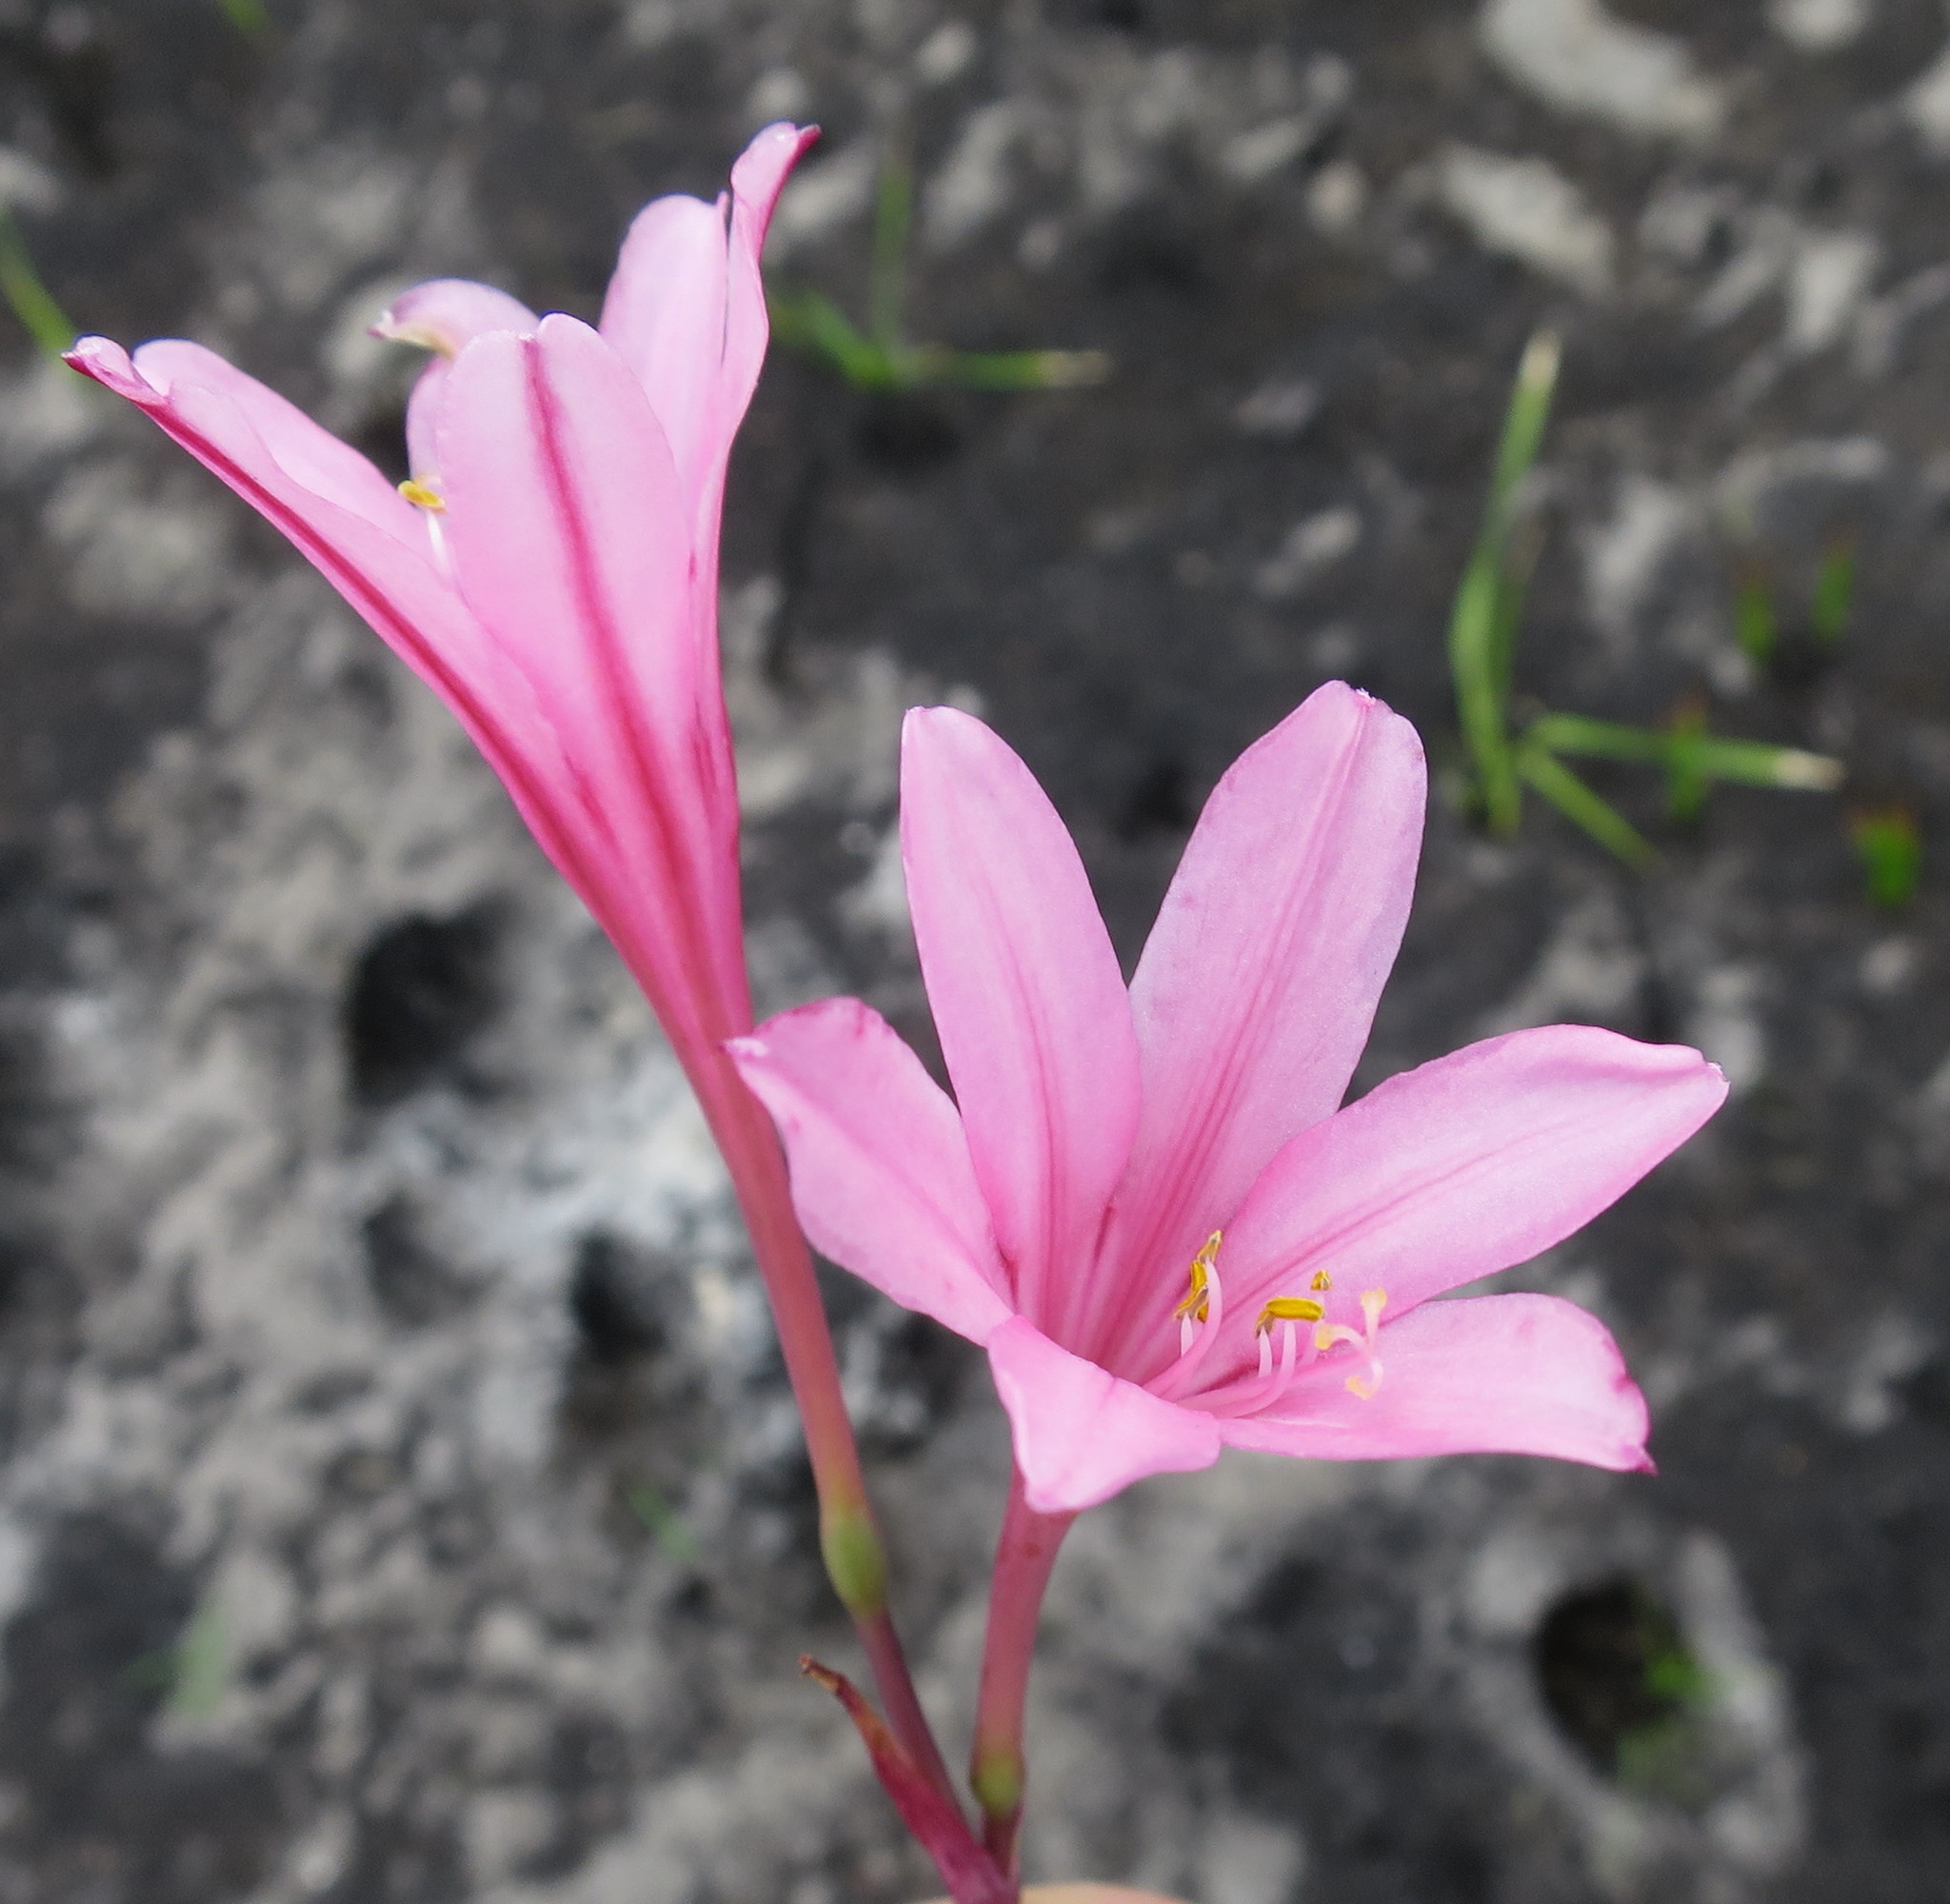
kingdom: Plantae
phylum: Tracheophyta
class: Liliopsida
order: Asparagales
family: Amaryllidaceae
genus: Cyrtanthus
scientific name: Cyrtanthus debilis
